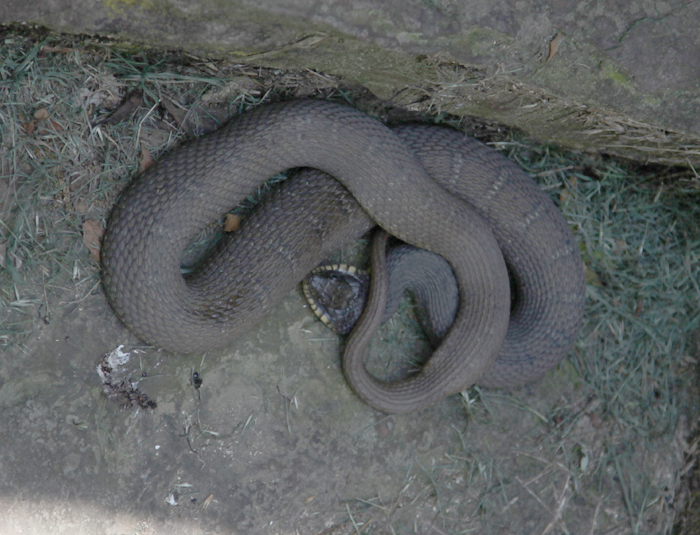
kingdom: Animalia
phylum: Chordata
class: Squamata
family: Colubridae
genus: Nerodia
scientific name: Nerodia erythrogaster
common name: Plainbelly water snake
